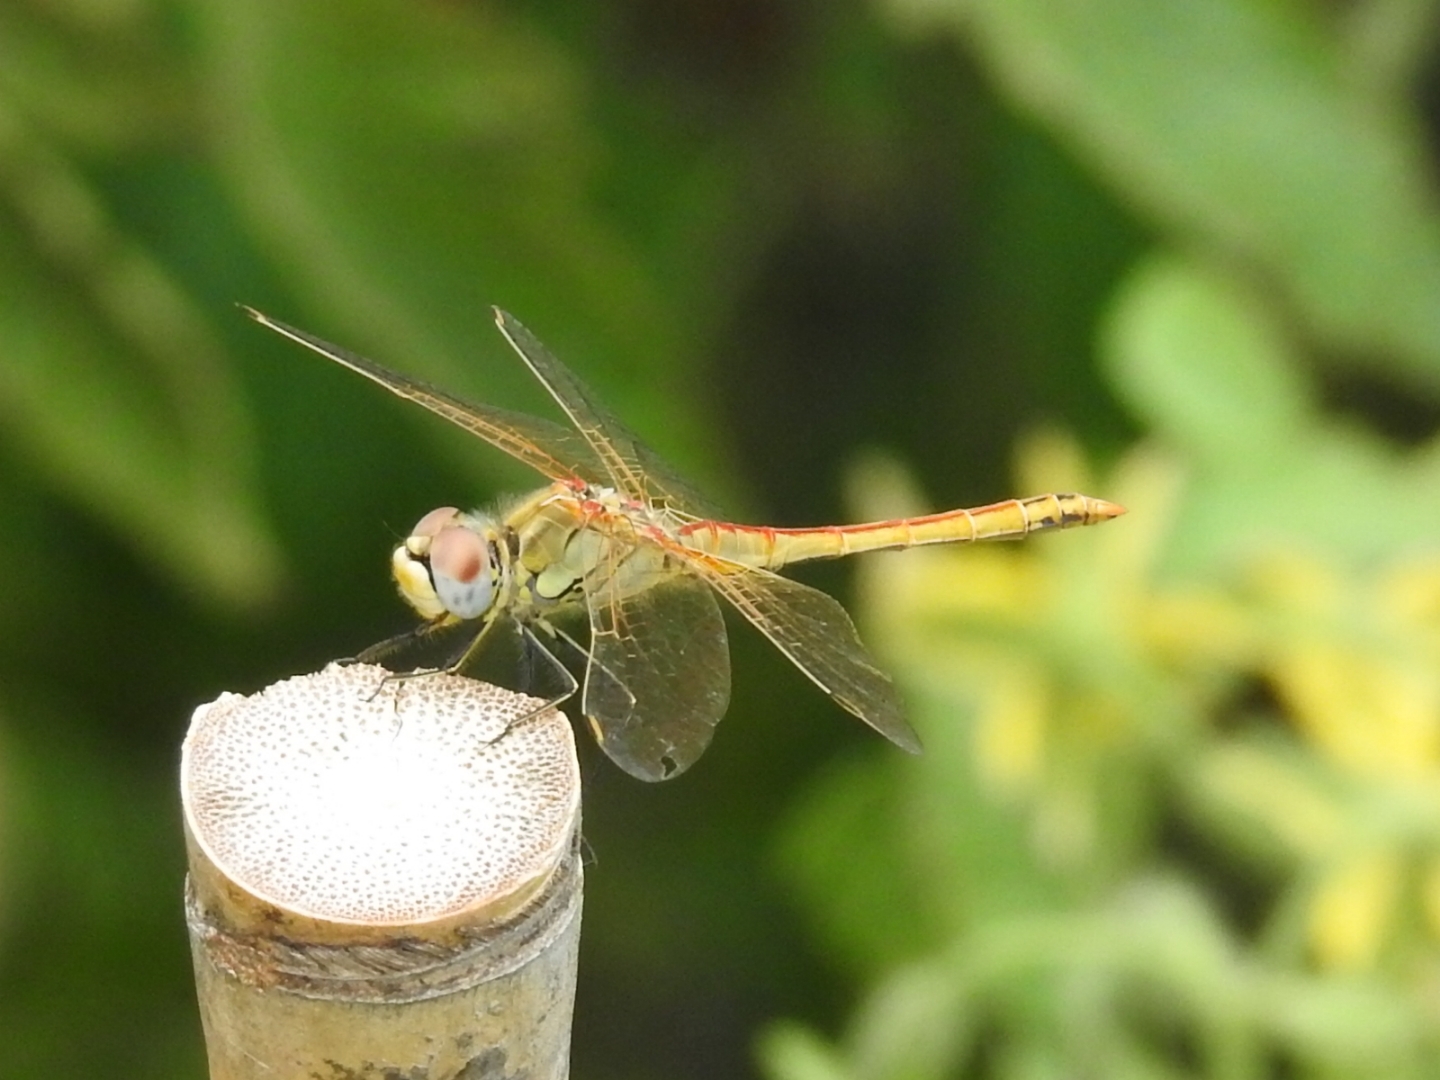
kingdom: Animalia
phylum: Arthropoda
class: Insecta
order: Odonata
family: Libellulidae
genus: Sympetrum
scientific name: Sympetrum fonscolombii
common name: Red-veined darter
